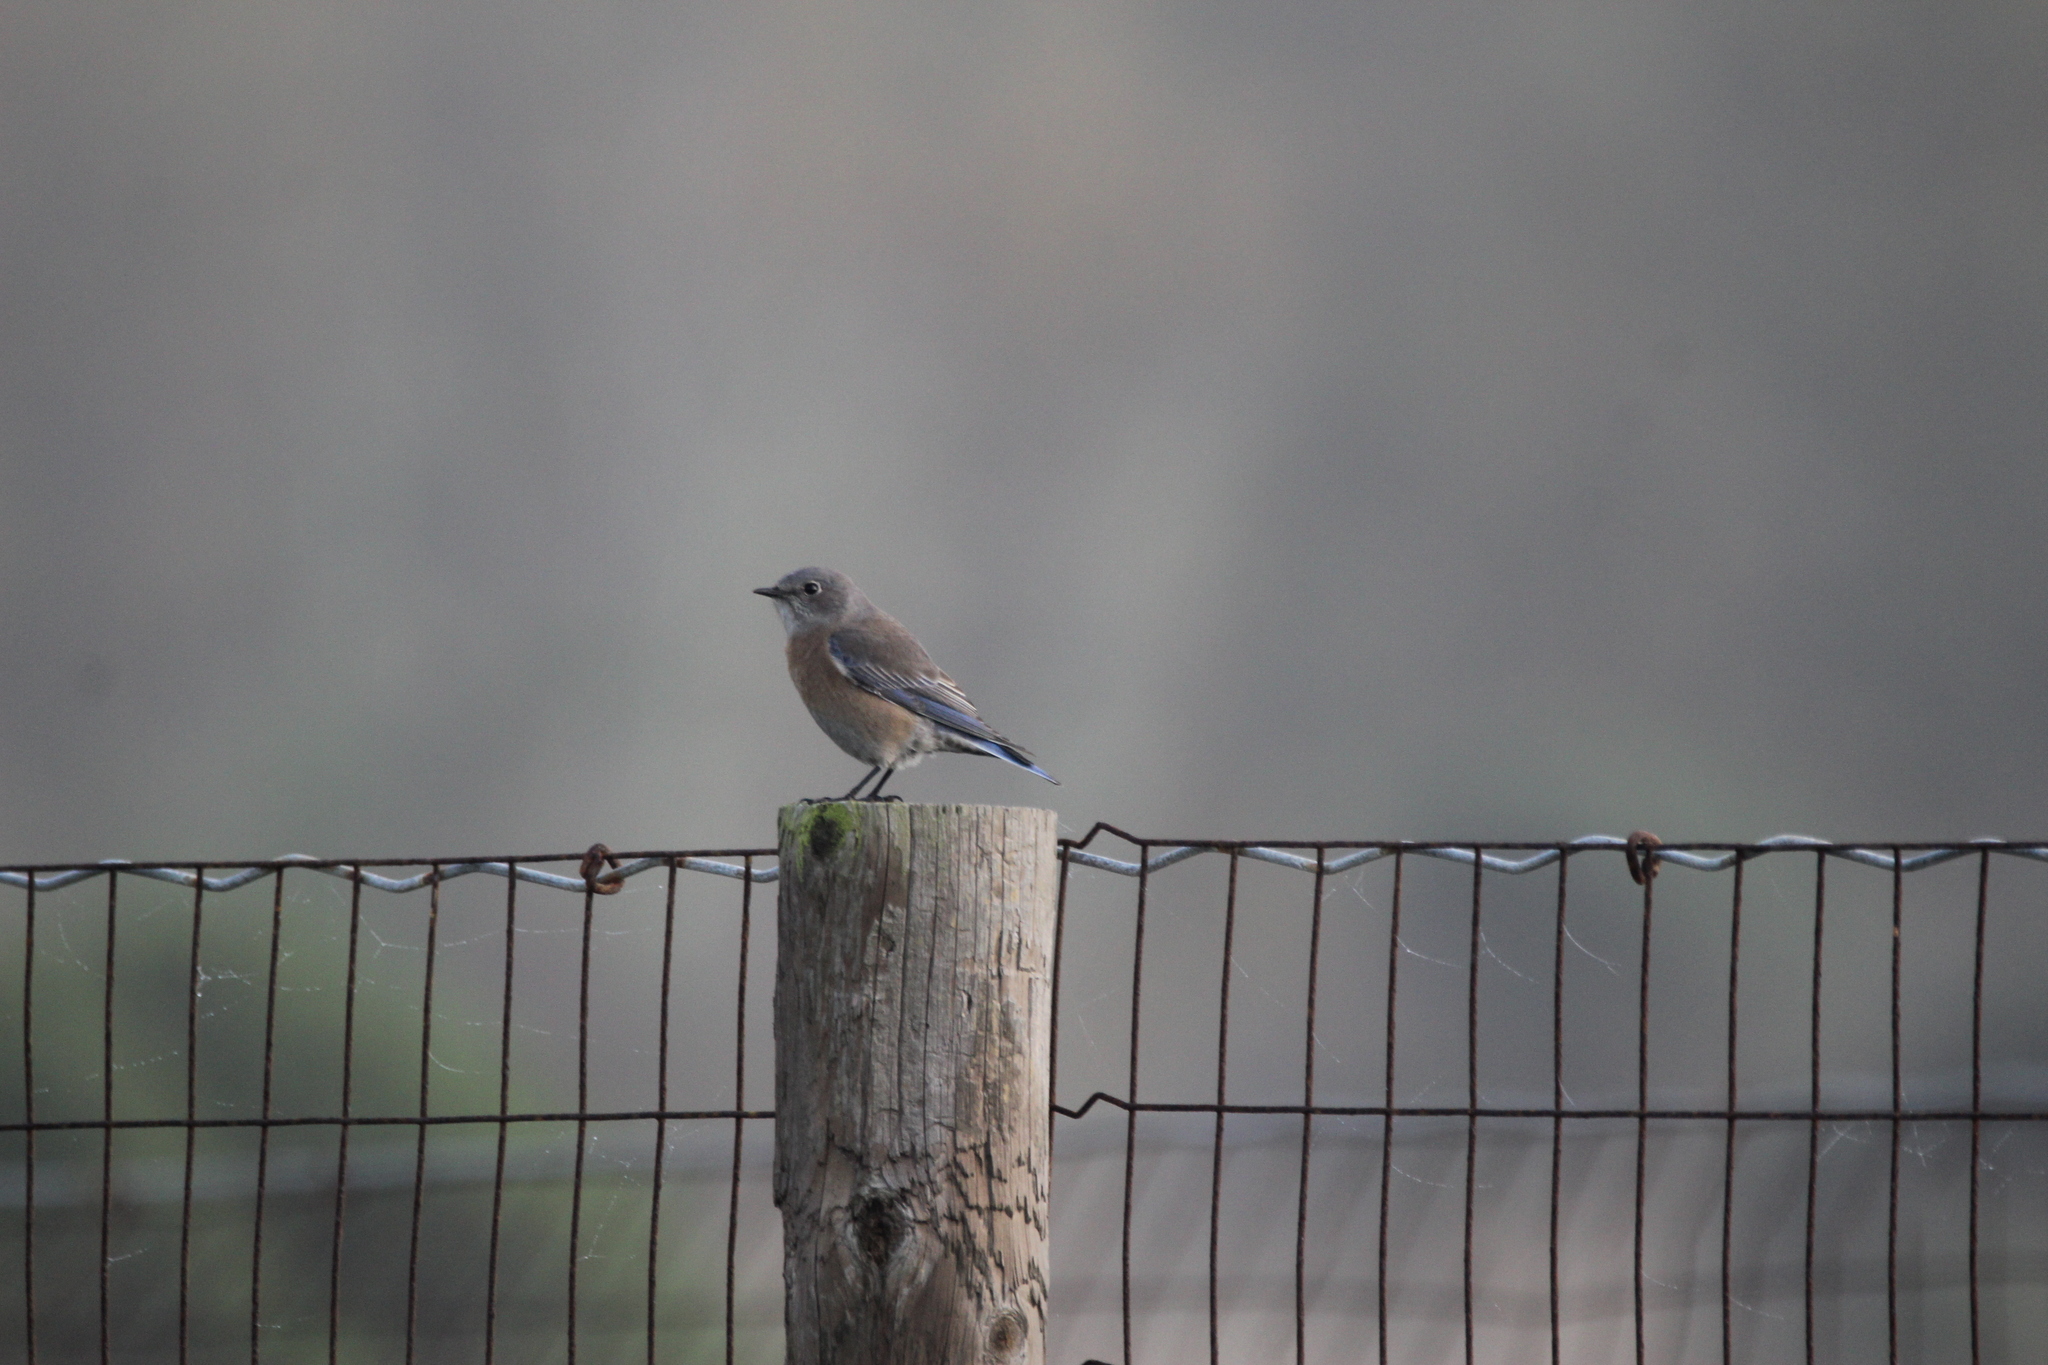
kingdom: Animalia
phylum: Chordata
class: Aves
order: Passeriformes
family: Turdidae
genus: Sialia
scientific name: Sialia mexicana
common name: Western bluebird
